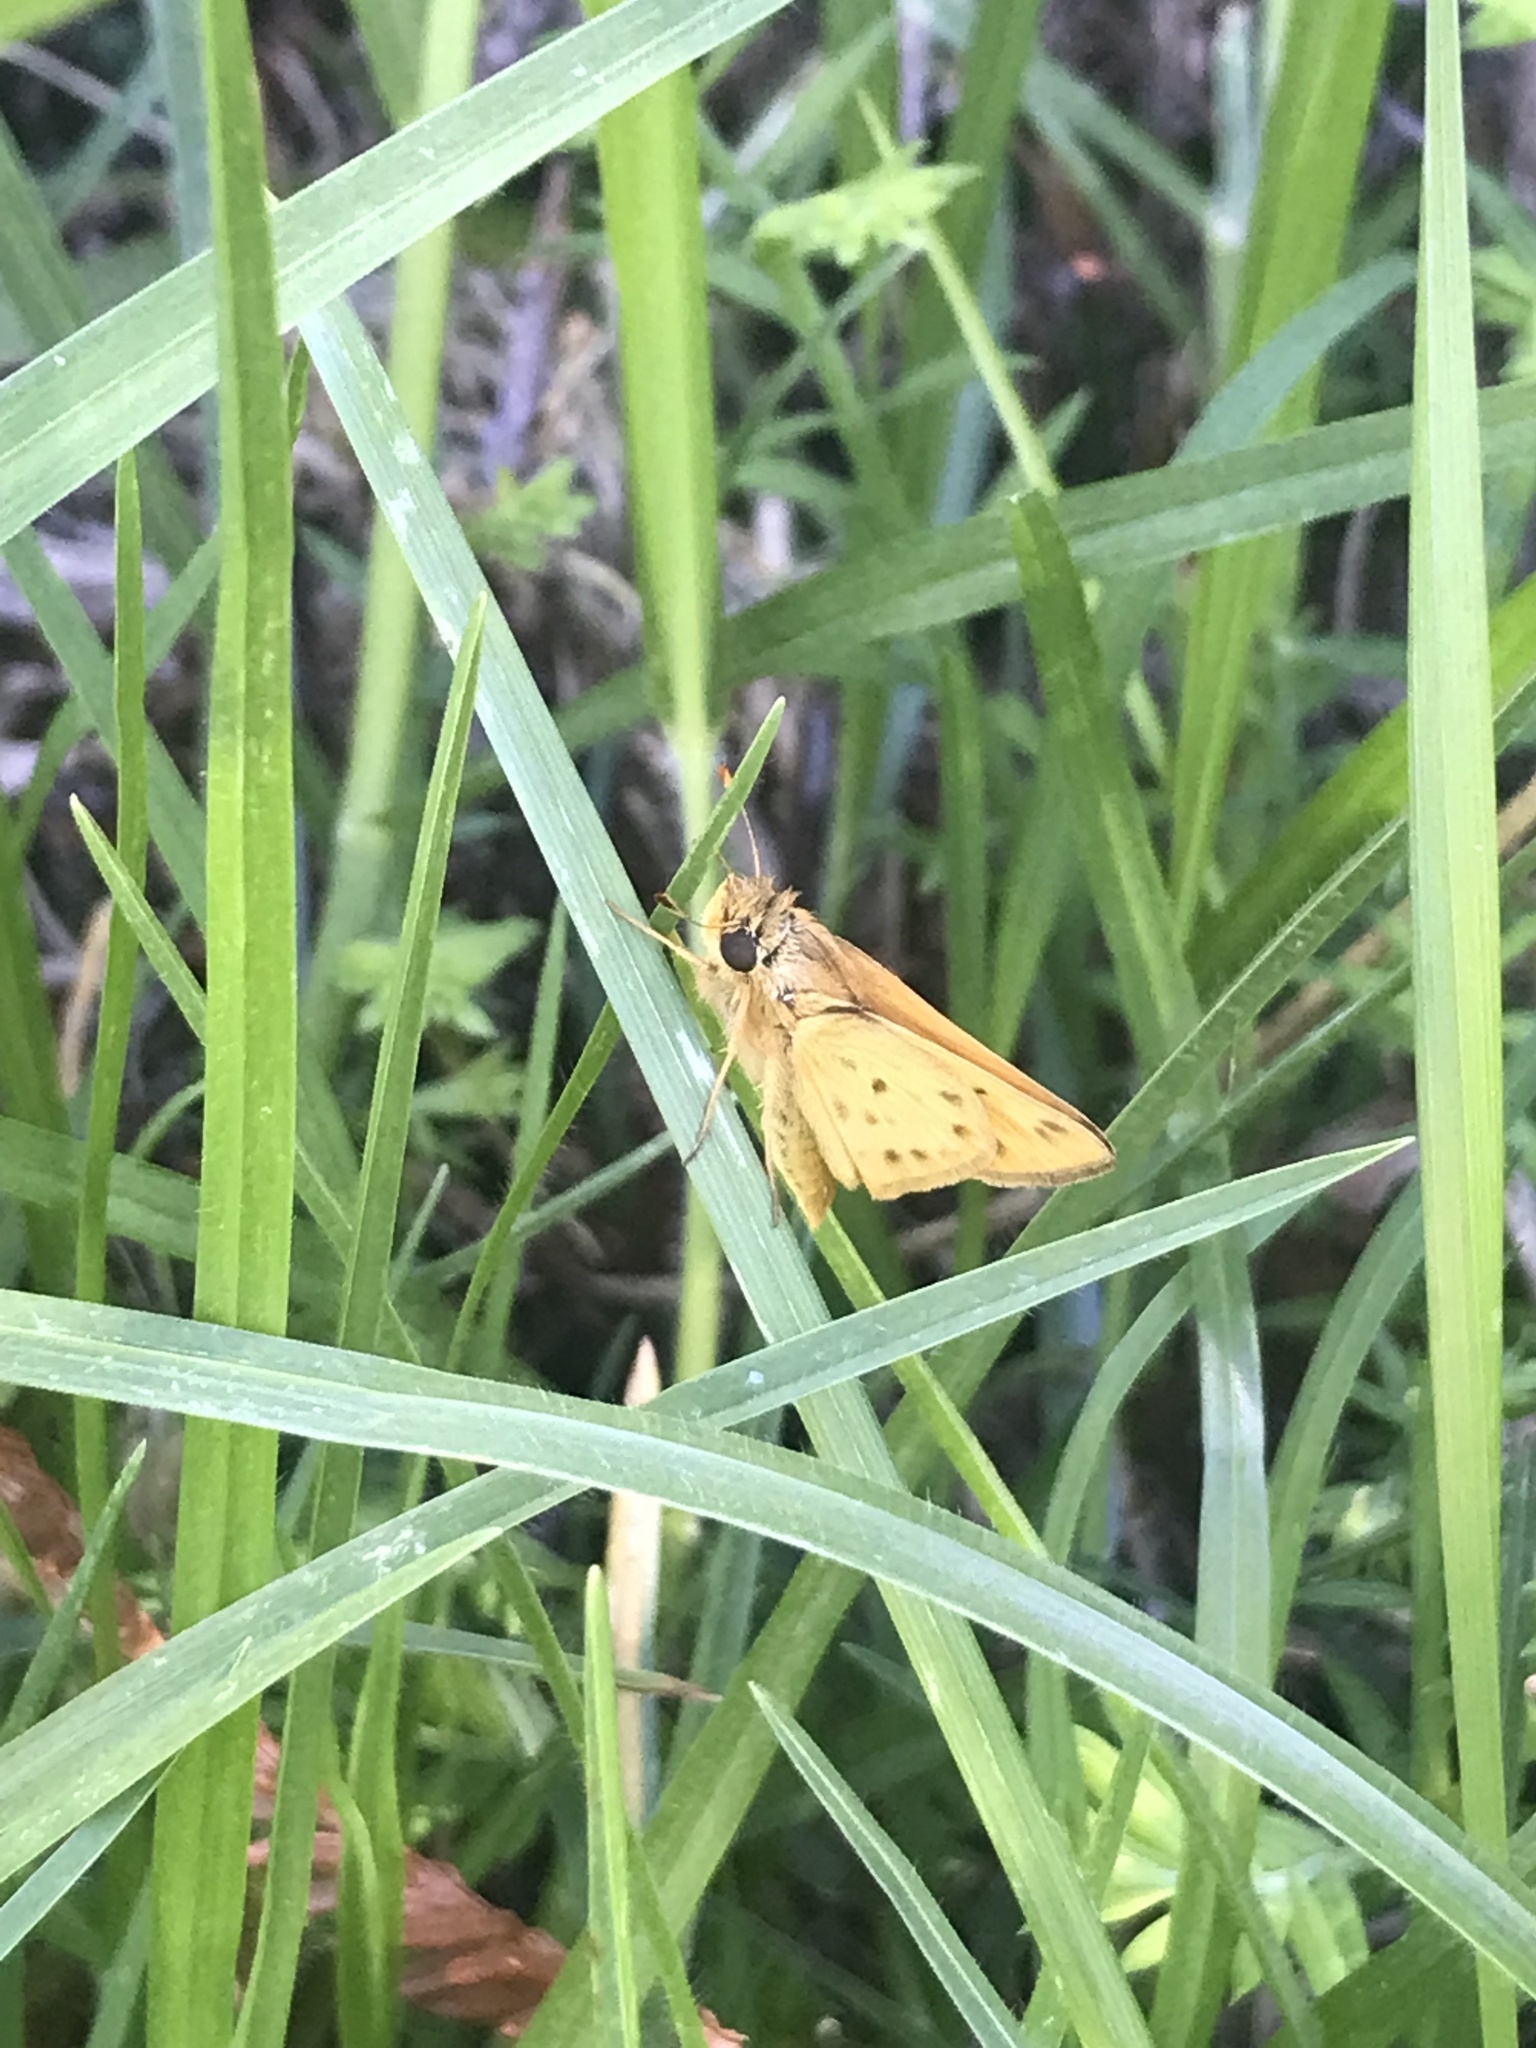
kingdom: Animalia
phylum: Arthropoda
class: Insecta
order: Lepidoptera
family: Hesperiidae
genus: Hylephila
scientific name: Hylephila phyleus
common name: Fiery skipper
